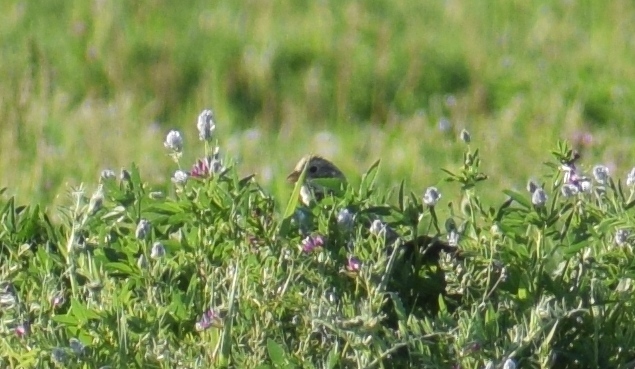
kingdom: Animalia
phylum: Chordata
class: Aves
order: Passeriformes
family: Emberizidae
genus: Emberiza
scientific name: Emberiza calandra
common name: Corn bunting
